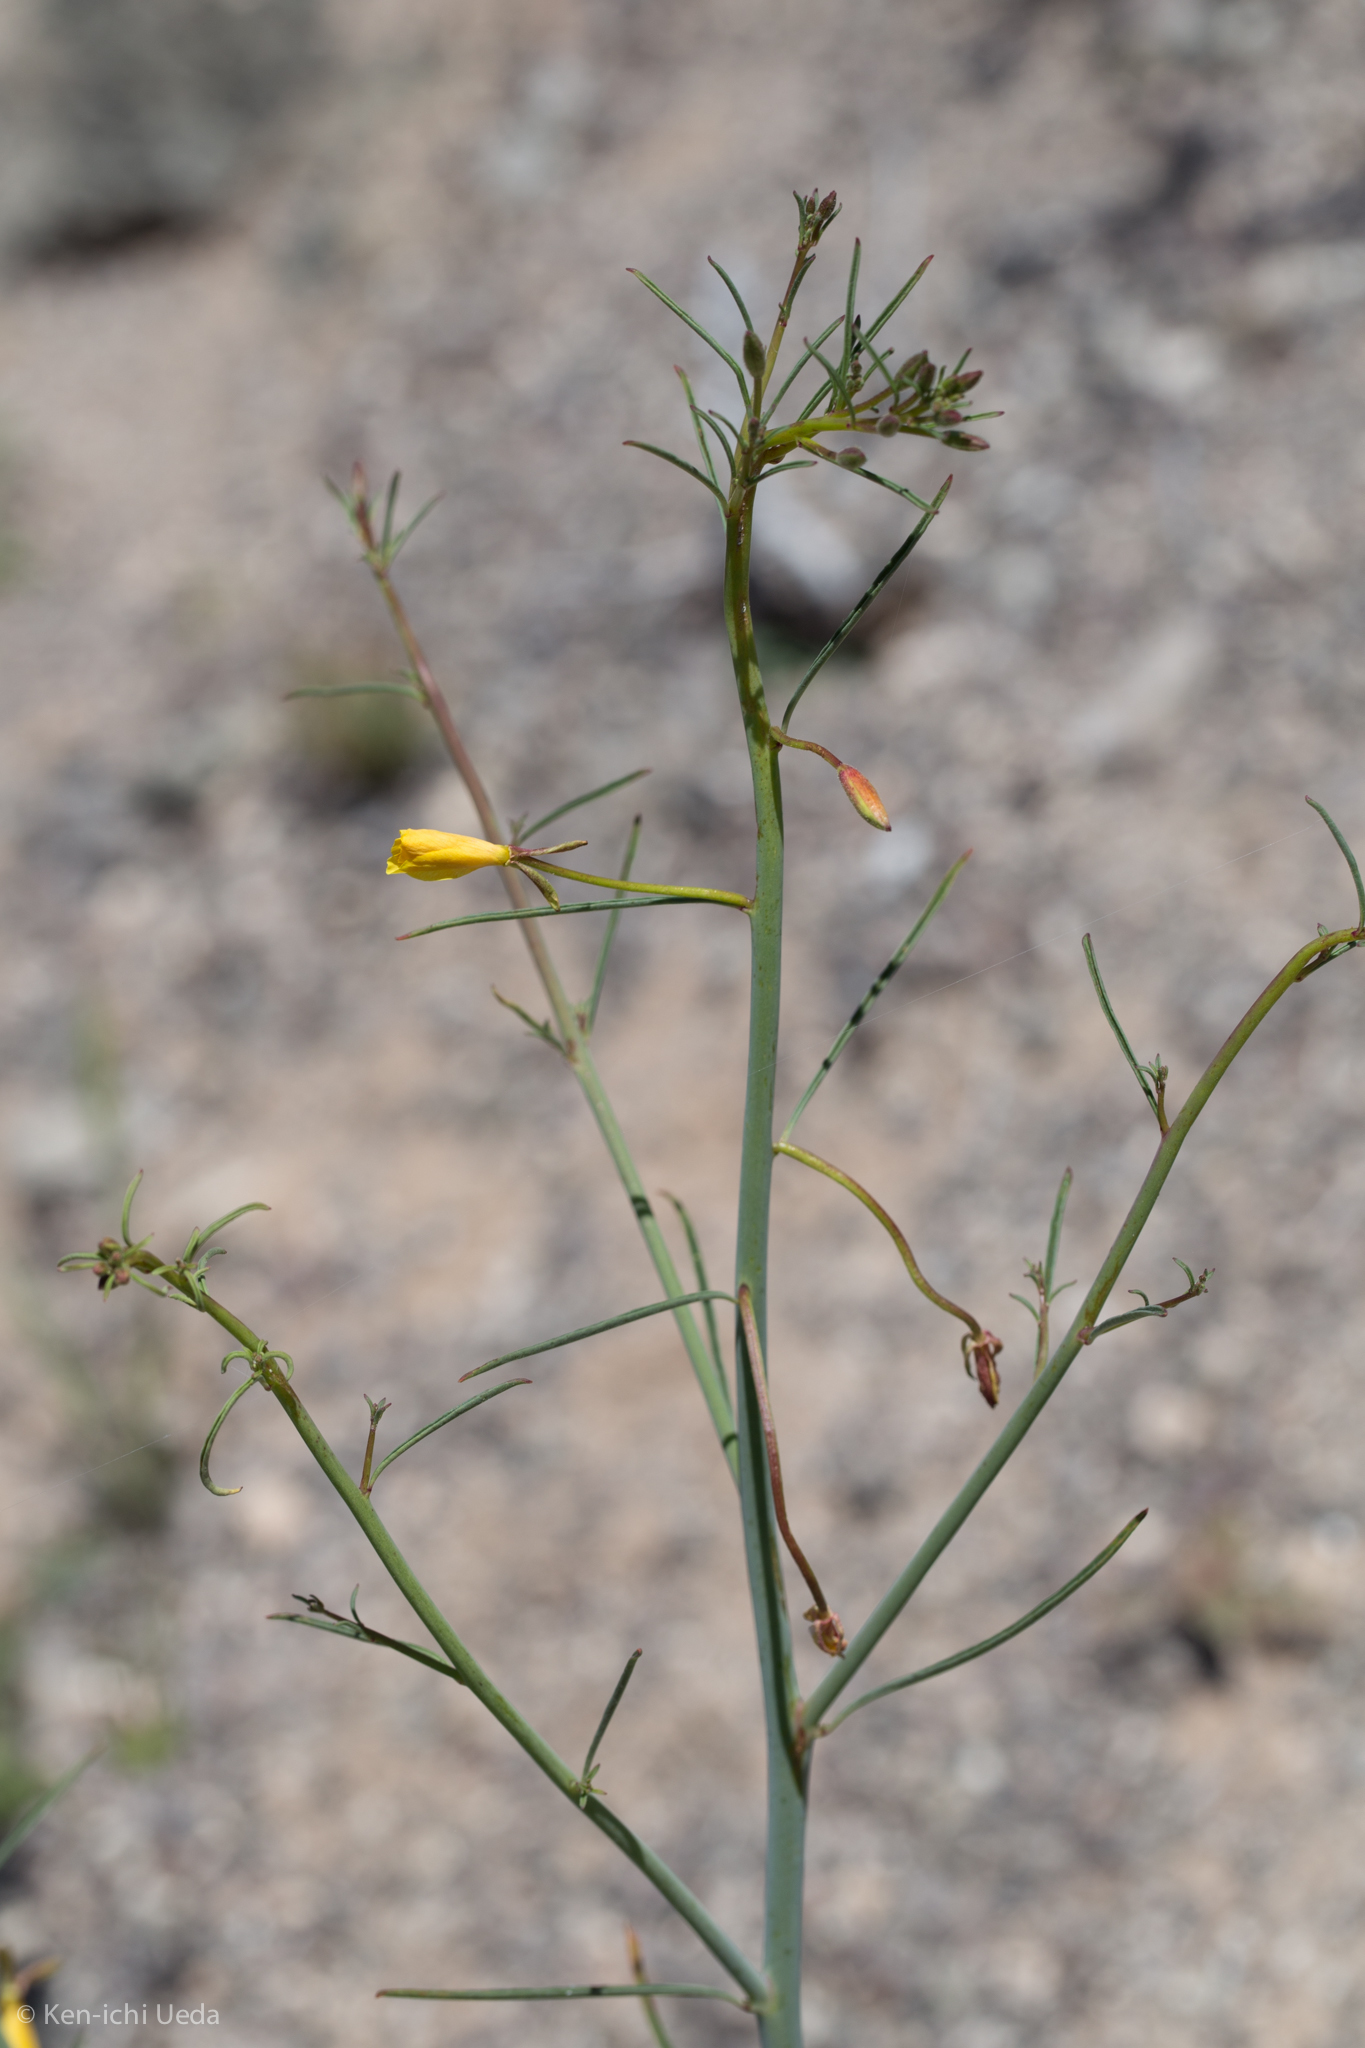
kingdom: Plantae
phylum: Tracheophyta
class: Magnoliopsida
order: Myrtales
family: Onagraceae
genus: Eulobus
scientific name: Eulobus californicus
